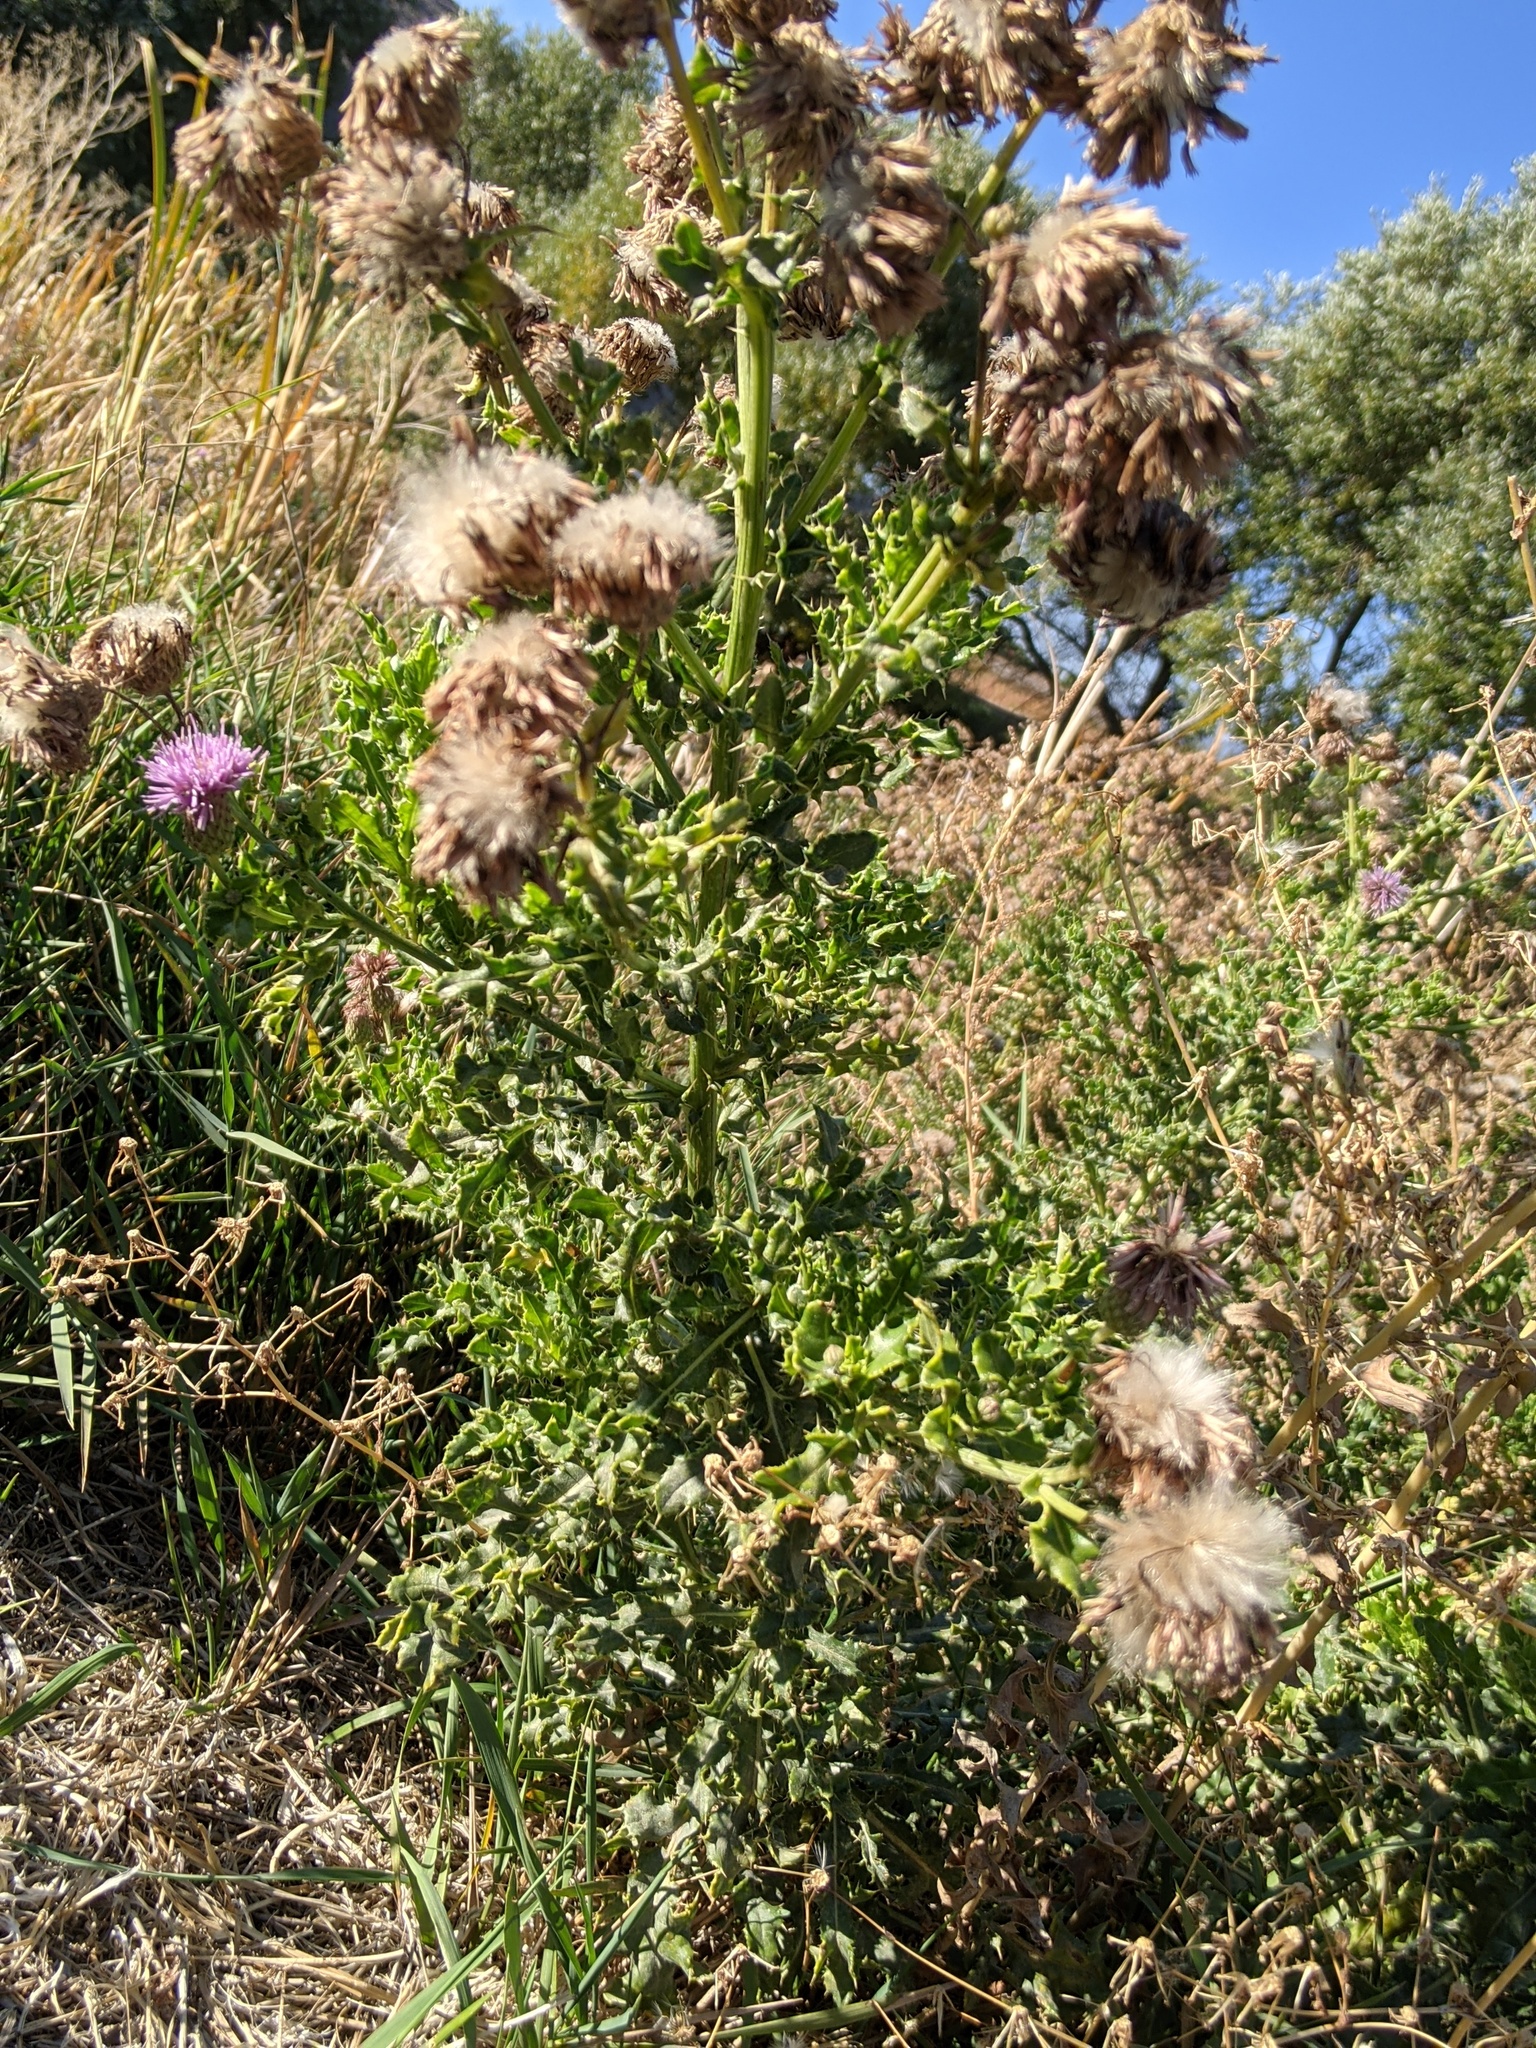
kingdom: Plantae
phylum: Tracheophyta
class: Magnoliopsida
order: Asterales
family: Asteraceae
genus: Cirsium
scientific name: Cirsium arvense
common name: Creeping thistle
